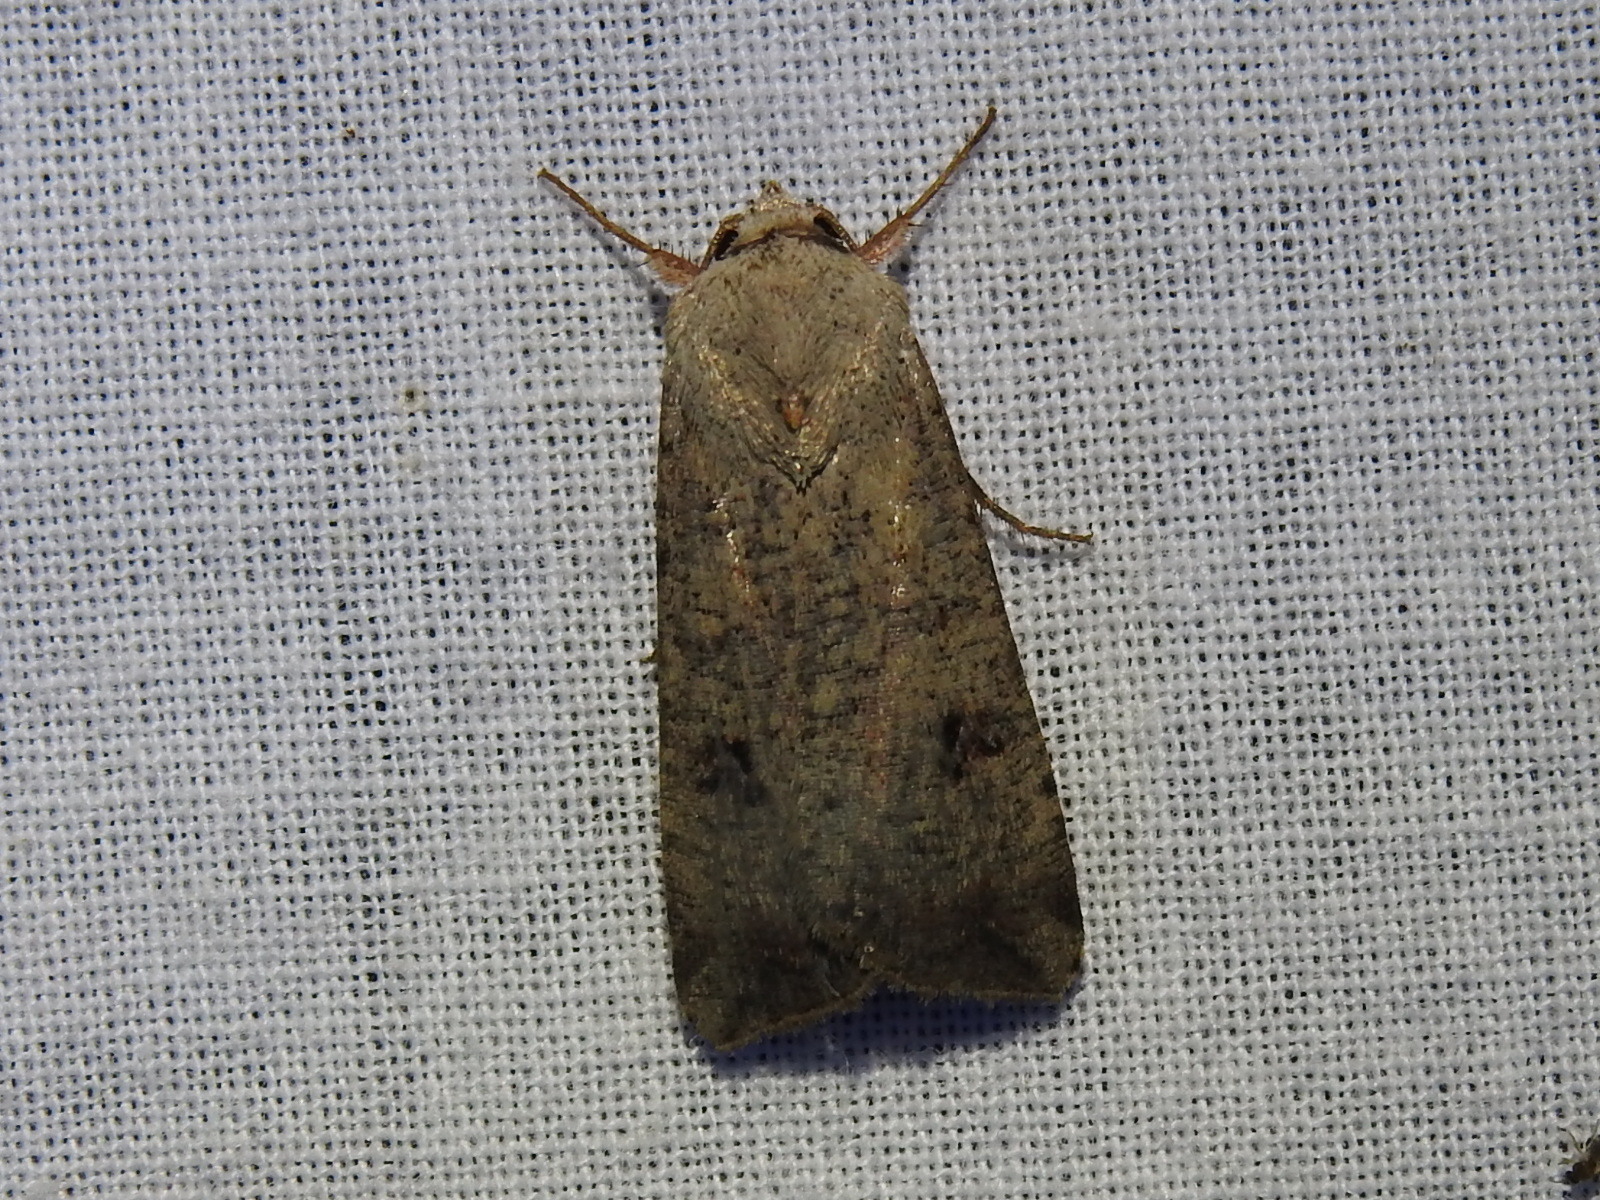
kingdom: Animalia
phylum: Arthropoda
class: Insecta
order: Lepidoptera
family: Noctuidae
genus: Anicla
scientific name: Anicla infecta
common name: Green cutworm
